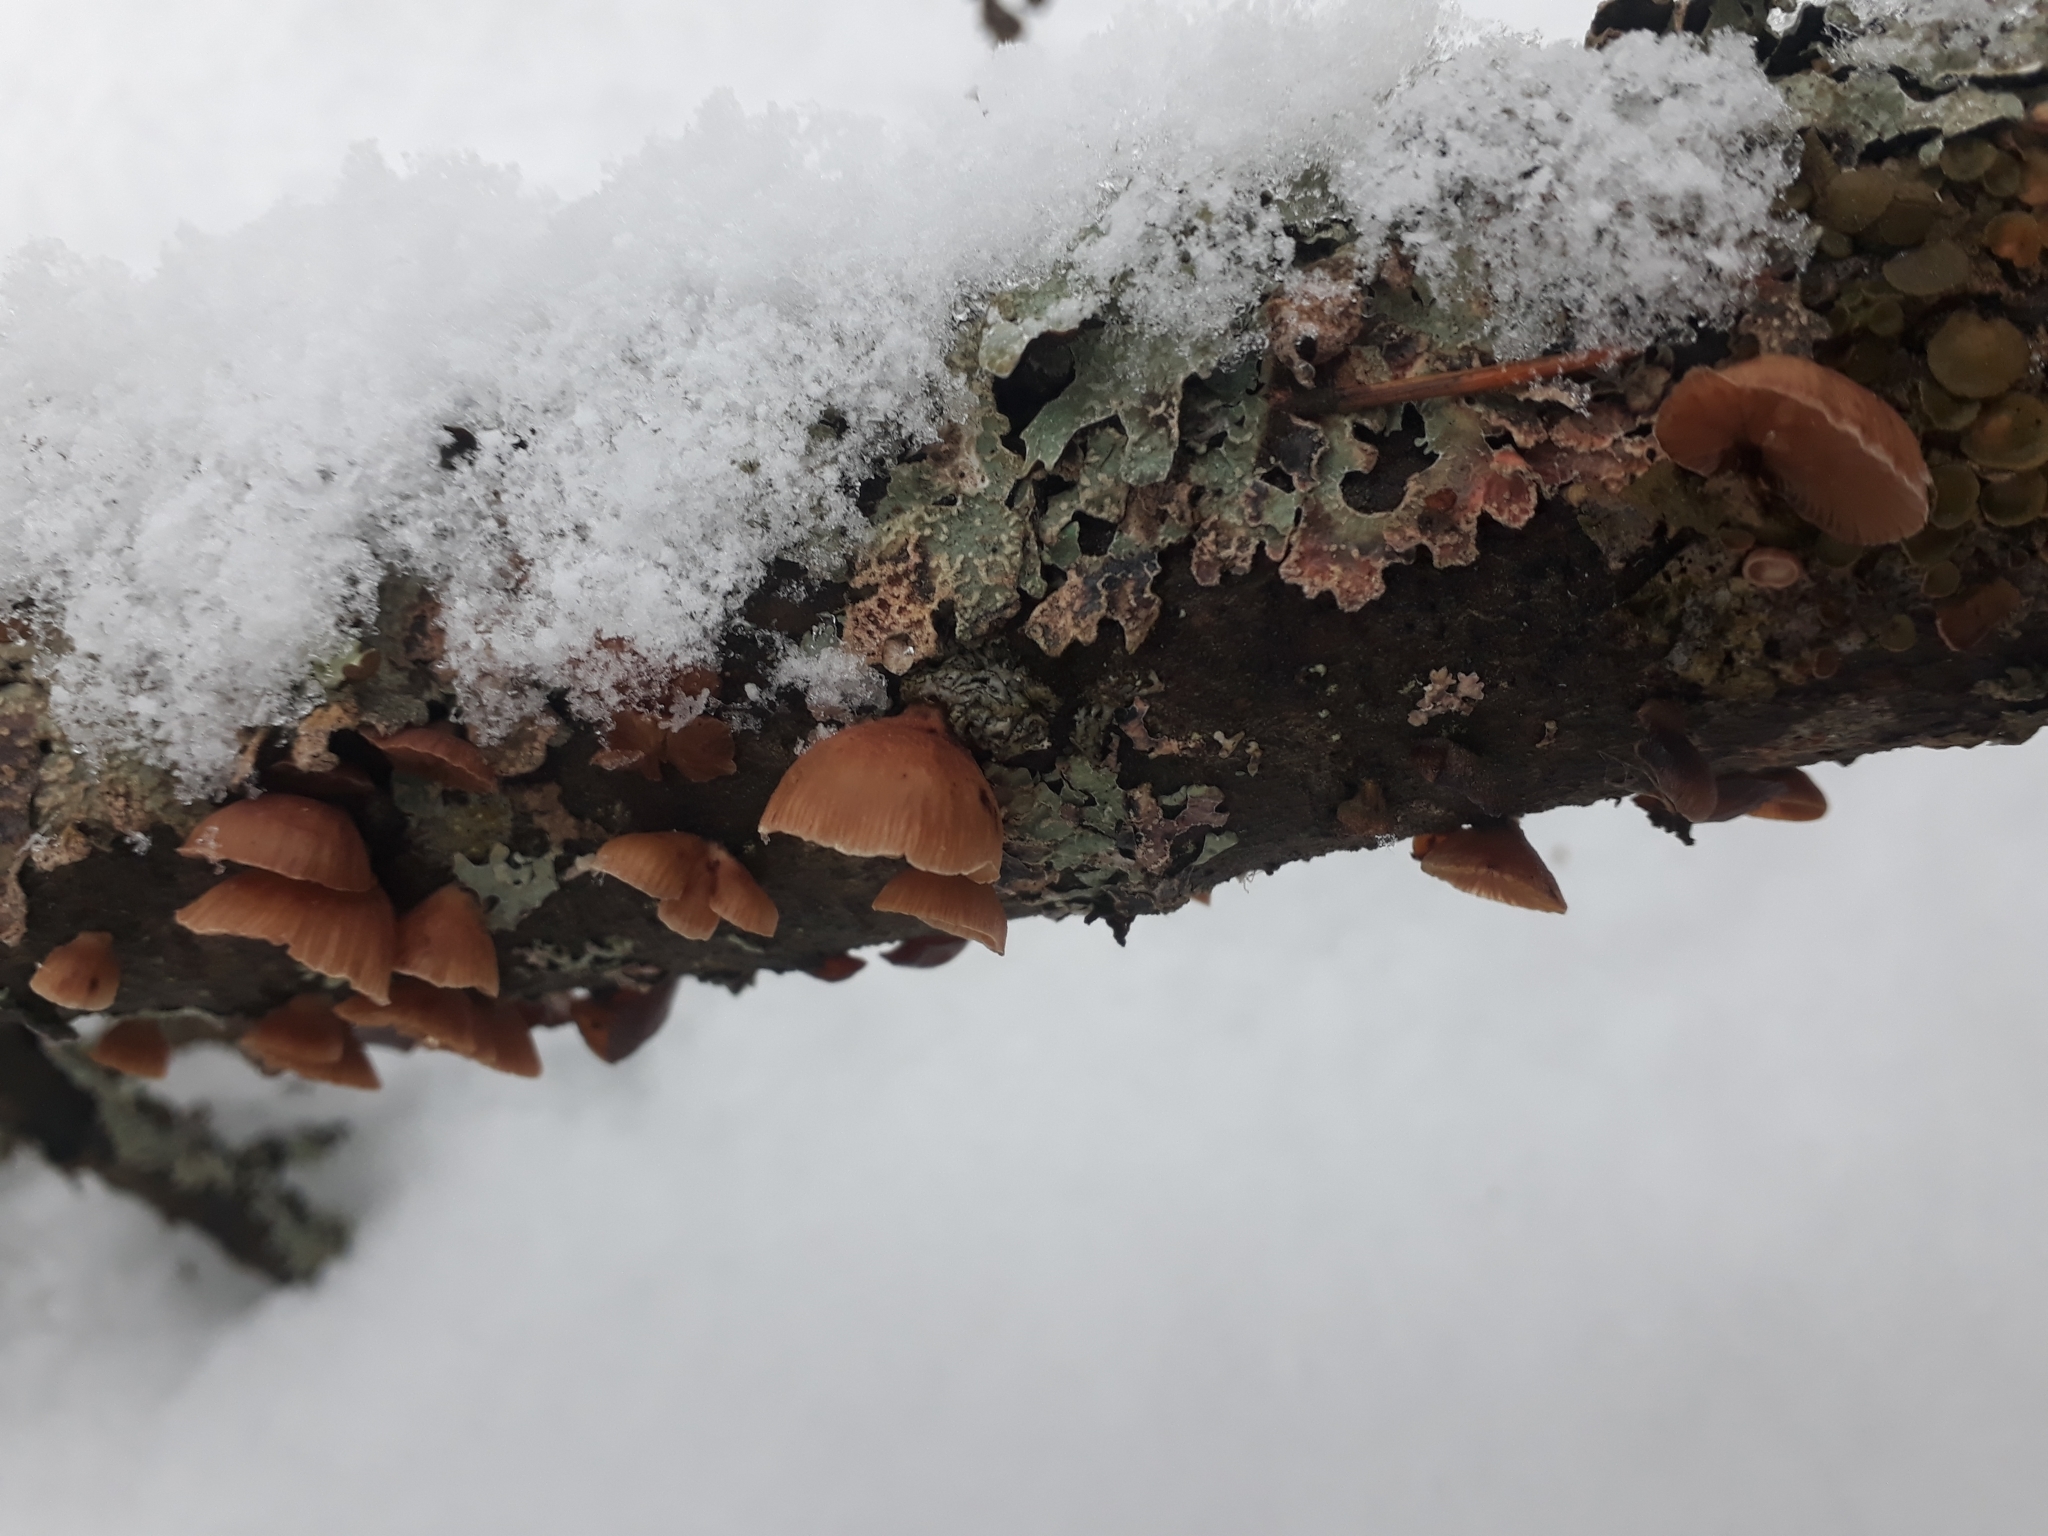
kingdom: Fungi
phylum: Basidiomycota
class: Agaricomycetes
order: Agaricales
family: Mycenaceae
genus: Panellus
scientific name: Panellus ringens
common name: Winter oysterling
